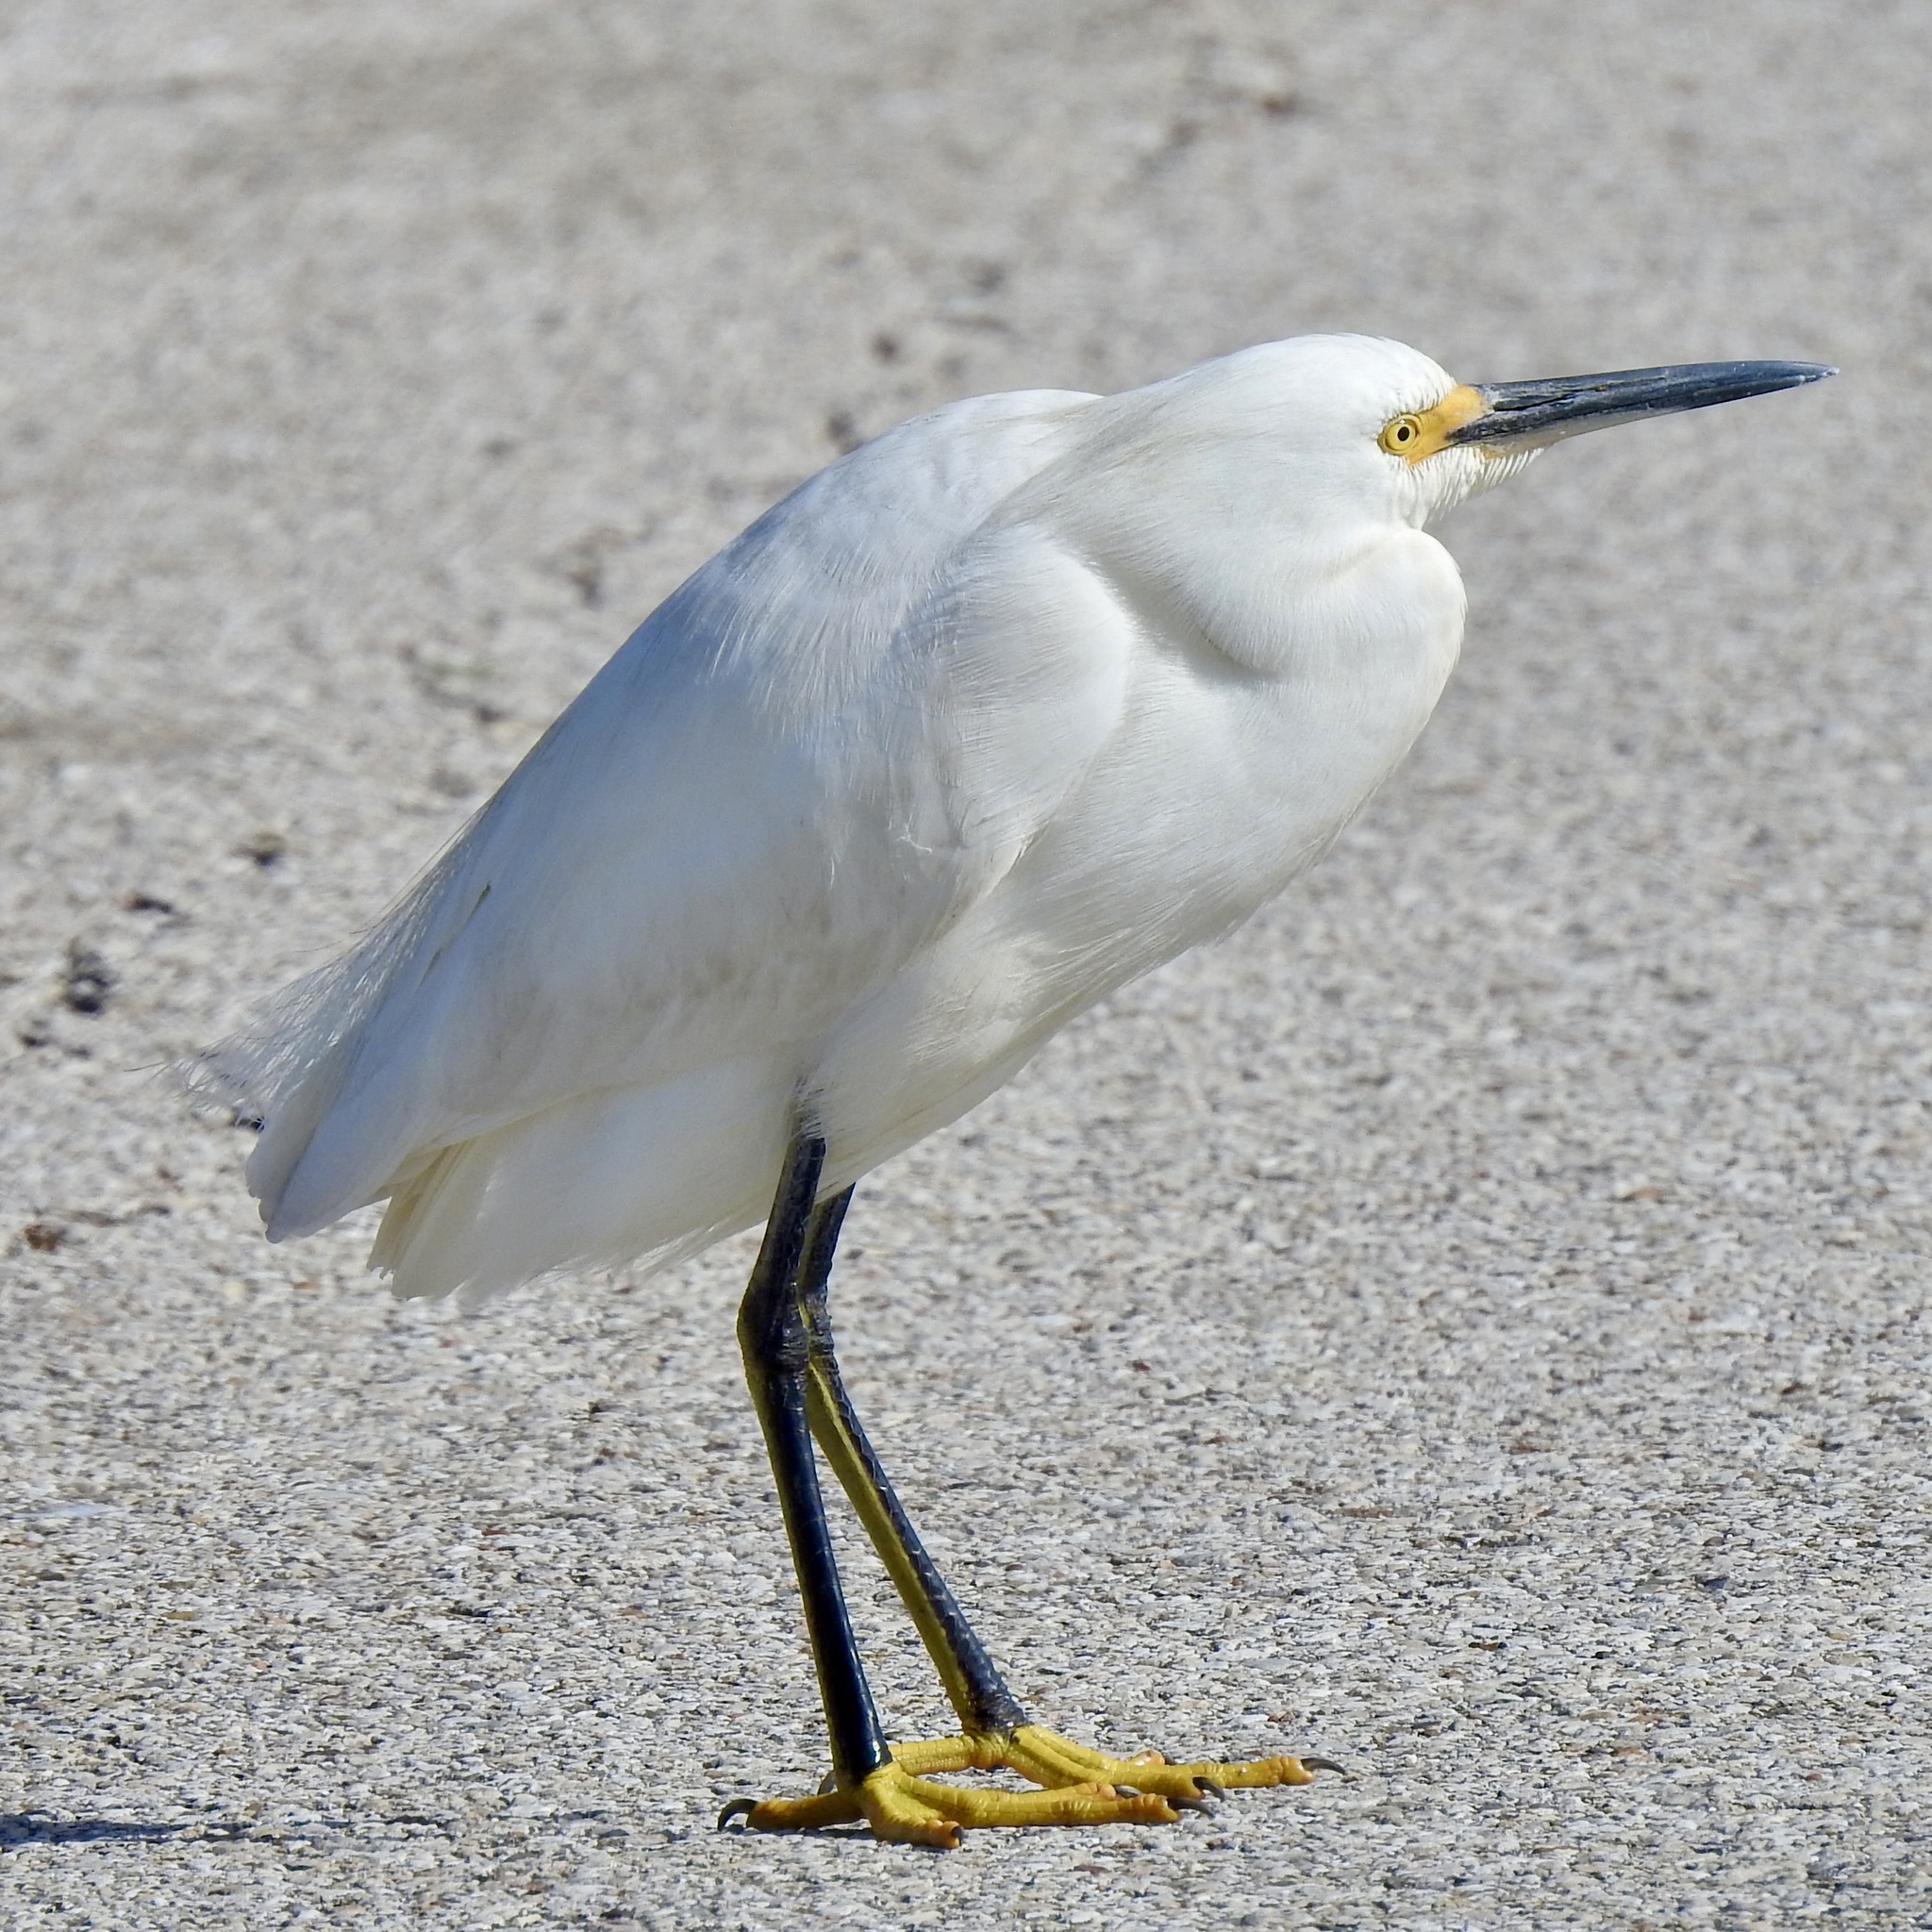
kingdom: Animalia
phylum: Chordata
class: Aves
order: Pelecaniformes
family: Ardeidae
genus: Egretta
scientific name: Egretta thula
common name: Snowy egret
